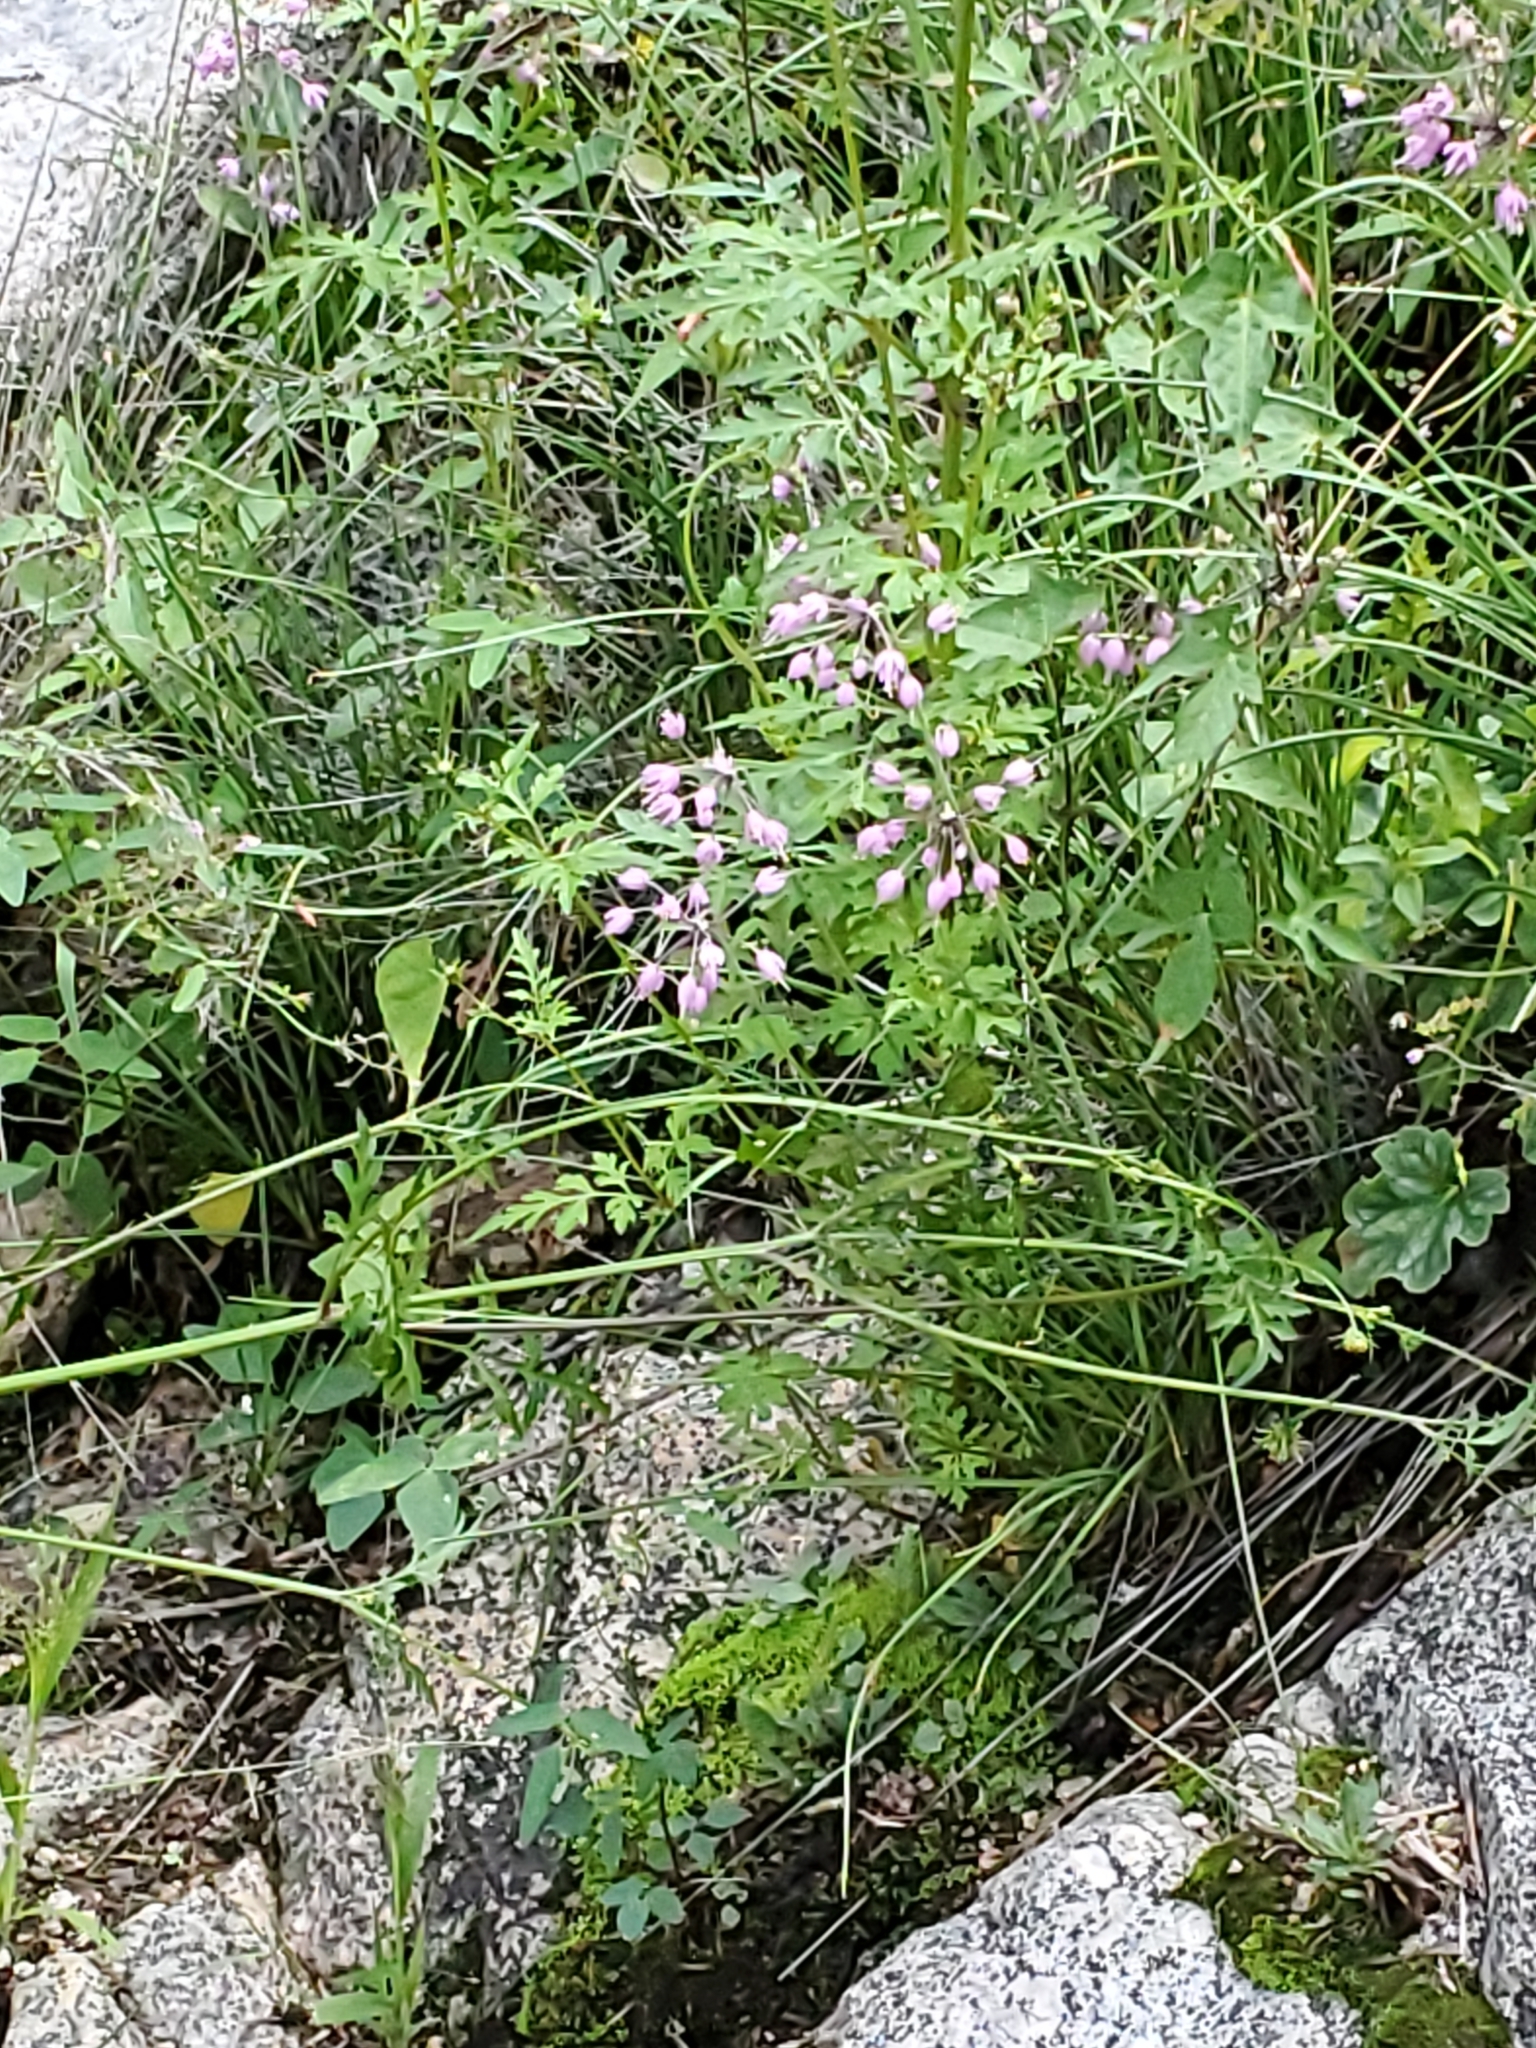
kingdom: Plantae
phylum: Tracheophyta
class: Liliopsida
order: Asparagales
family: Amaryllidaceae
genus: Allium
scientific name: Allium cernuum
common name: Nodding onion
